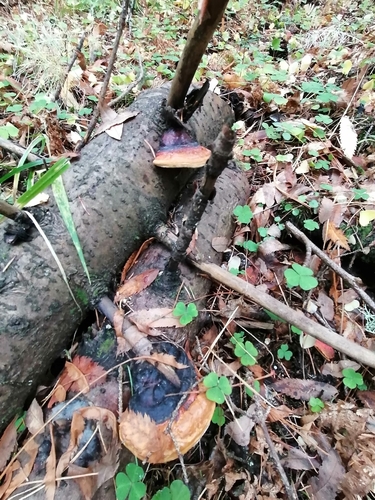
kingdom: Fungi
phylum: Basidiomycota
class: Agaricomycetes
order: Polyporales
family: Fomitopsidaceae
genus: Fomitopsis
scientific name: Fomitopsis pinicola
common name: Red-belted bracket
